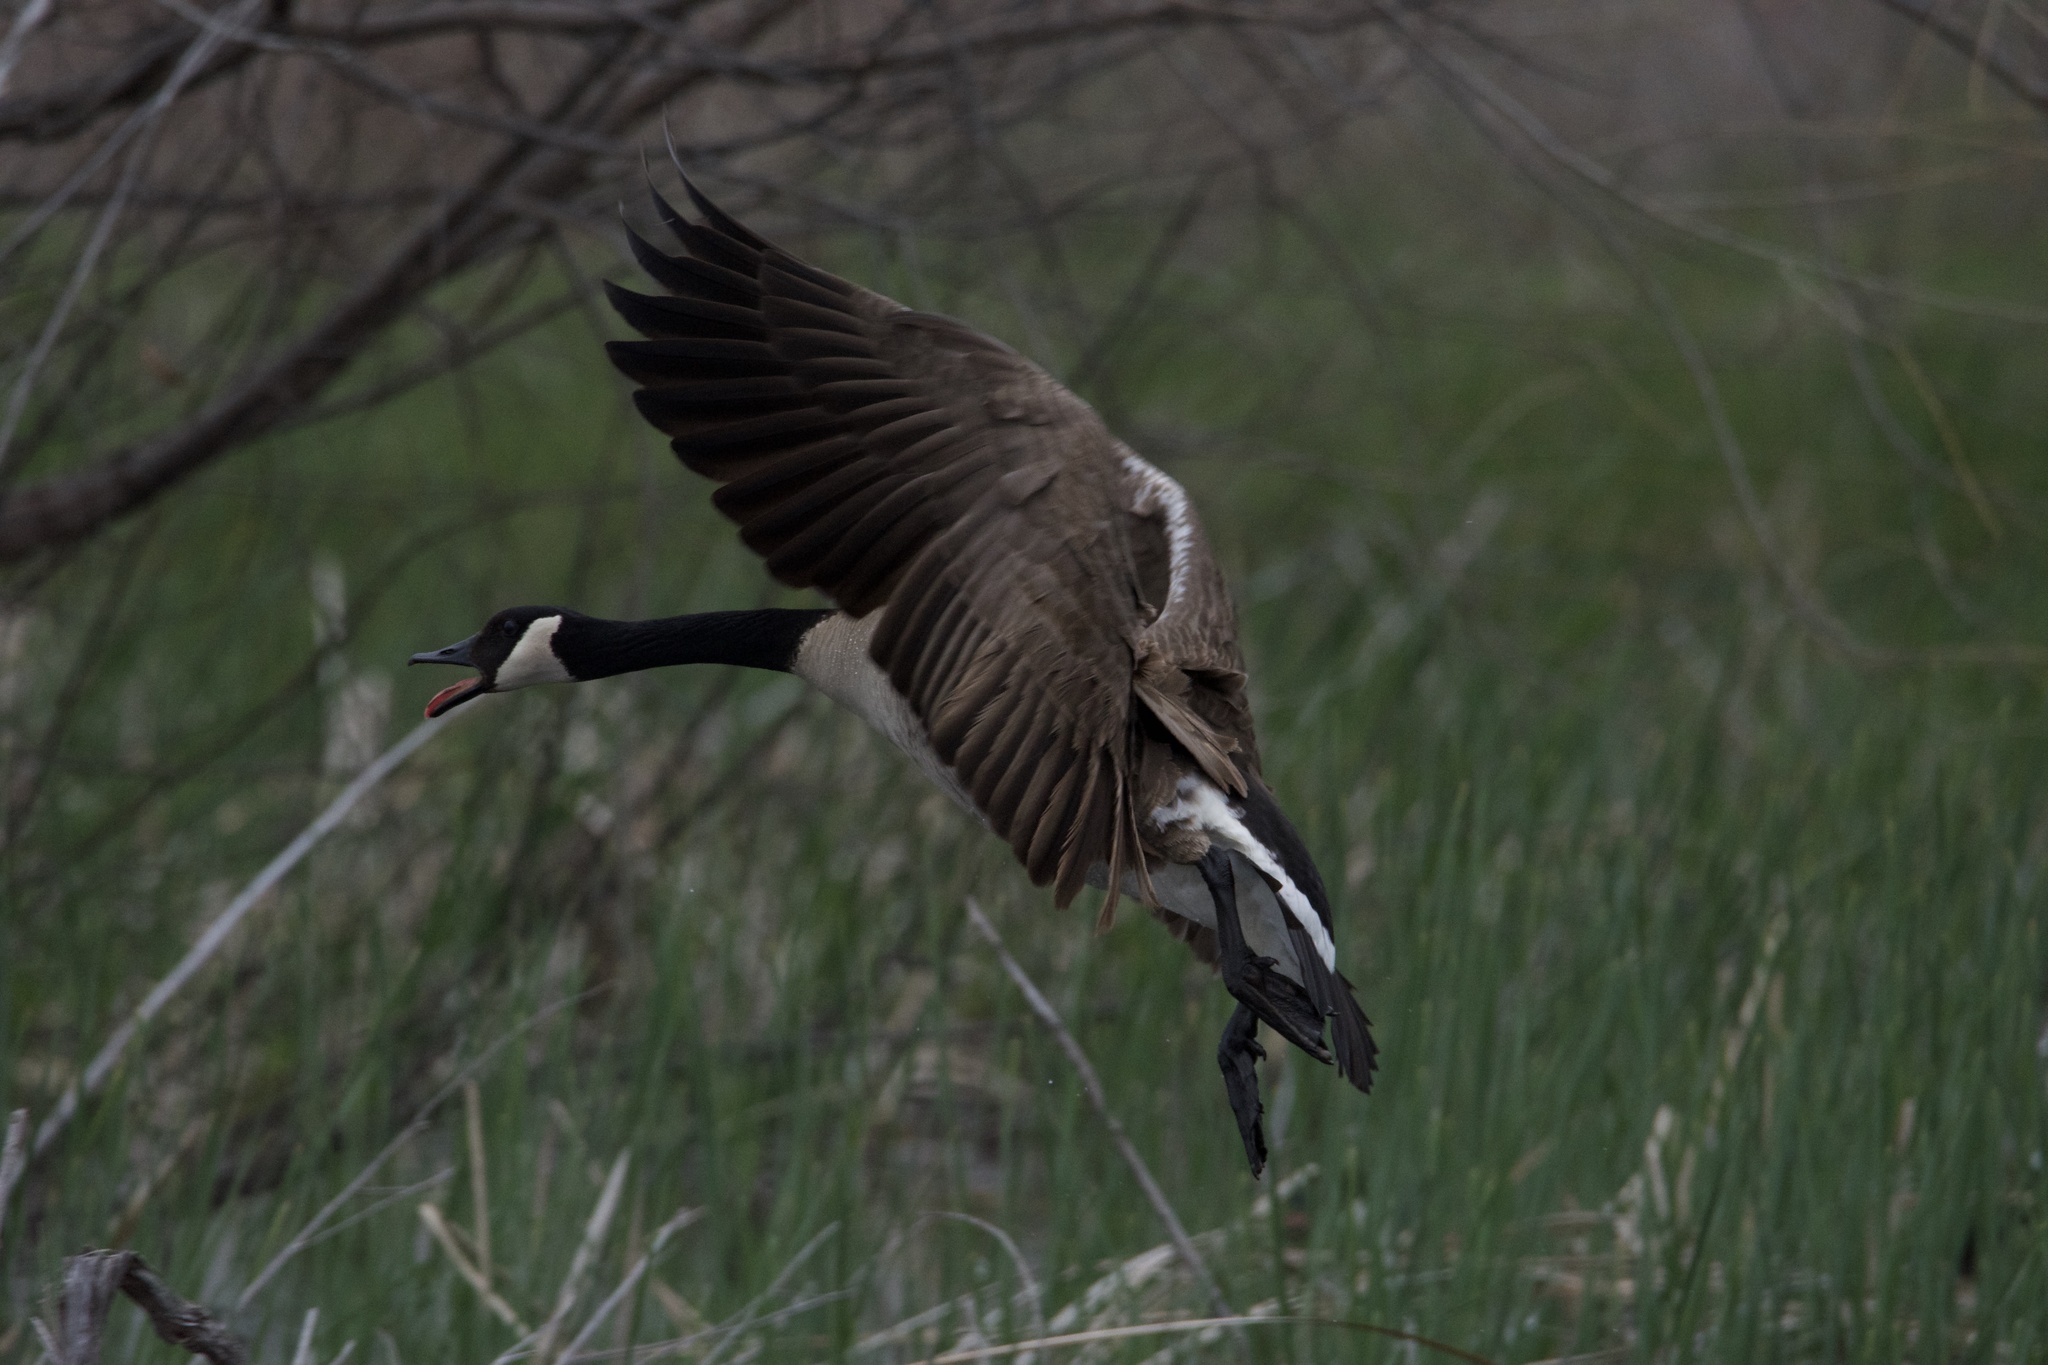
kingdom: Animalia
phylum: Chordata
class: Aves
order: Anseriformes
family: Anatidae
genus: Branta
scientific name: Branta canadensis
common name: Canada goose
